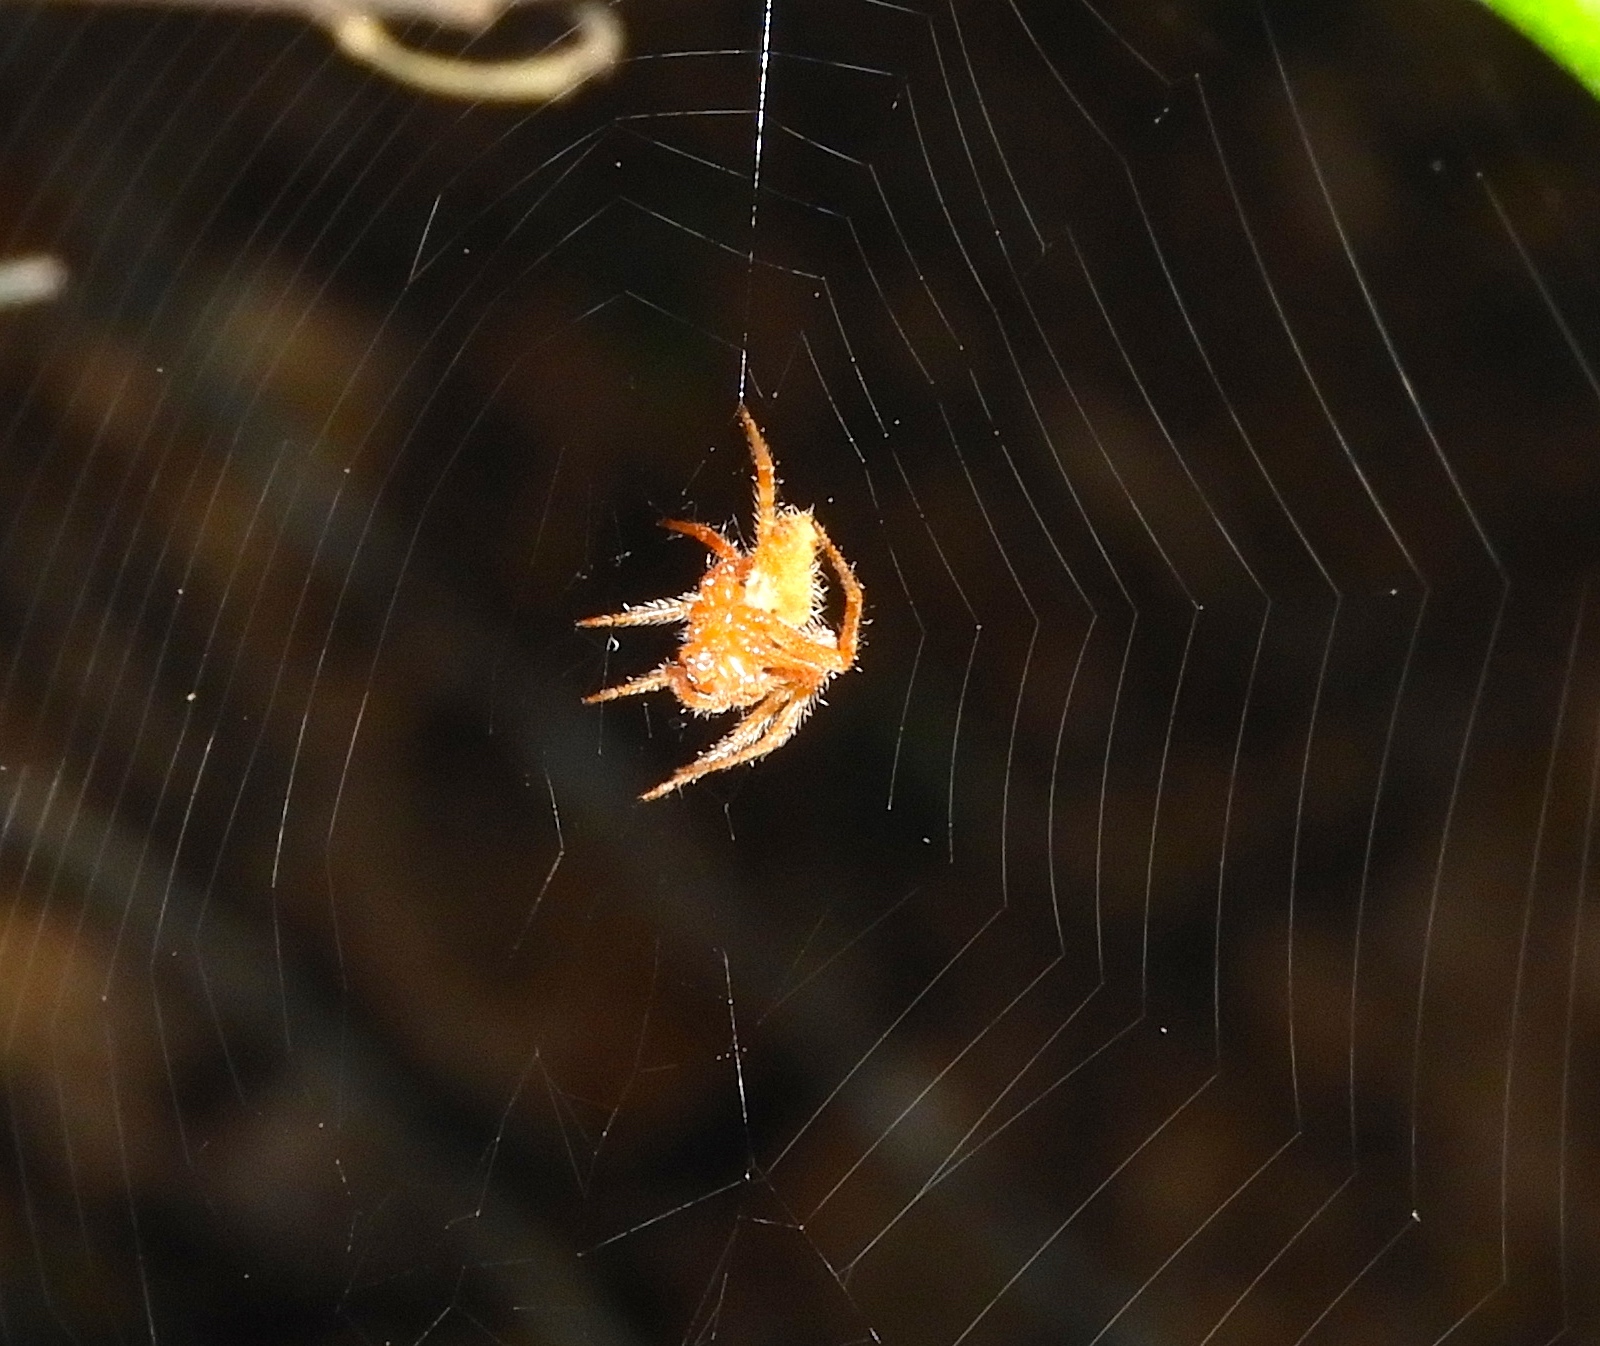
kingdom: Animalia
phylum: Arthropoda
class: Arachnida
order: Araneae
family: Araneidae
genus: Eriophora
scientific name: Eriophora
